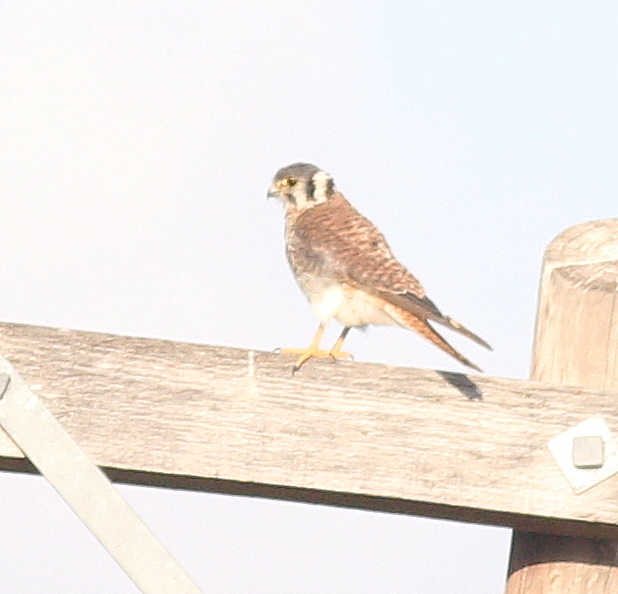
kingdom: Animalia
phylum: Chordata
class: Aves
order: Falconiformes
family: Falconidae
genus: Falco
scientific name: Falco sparverius
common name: American kestrel
